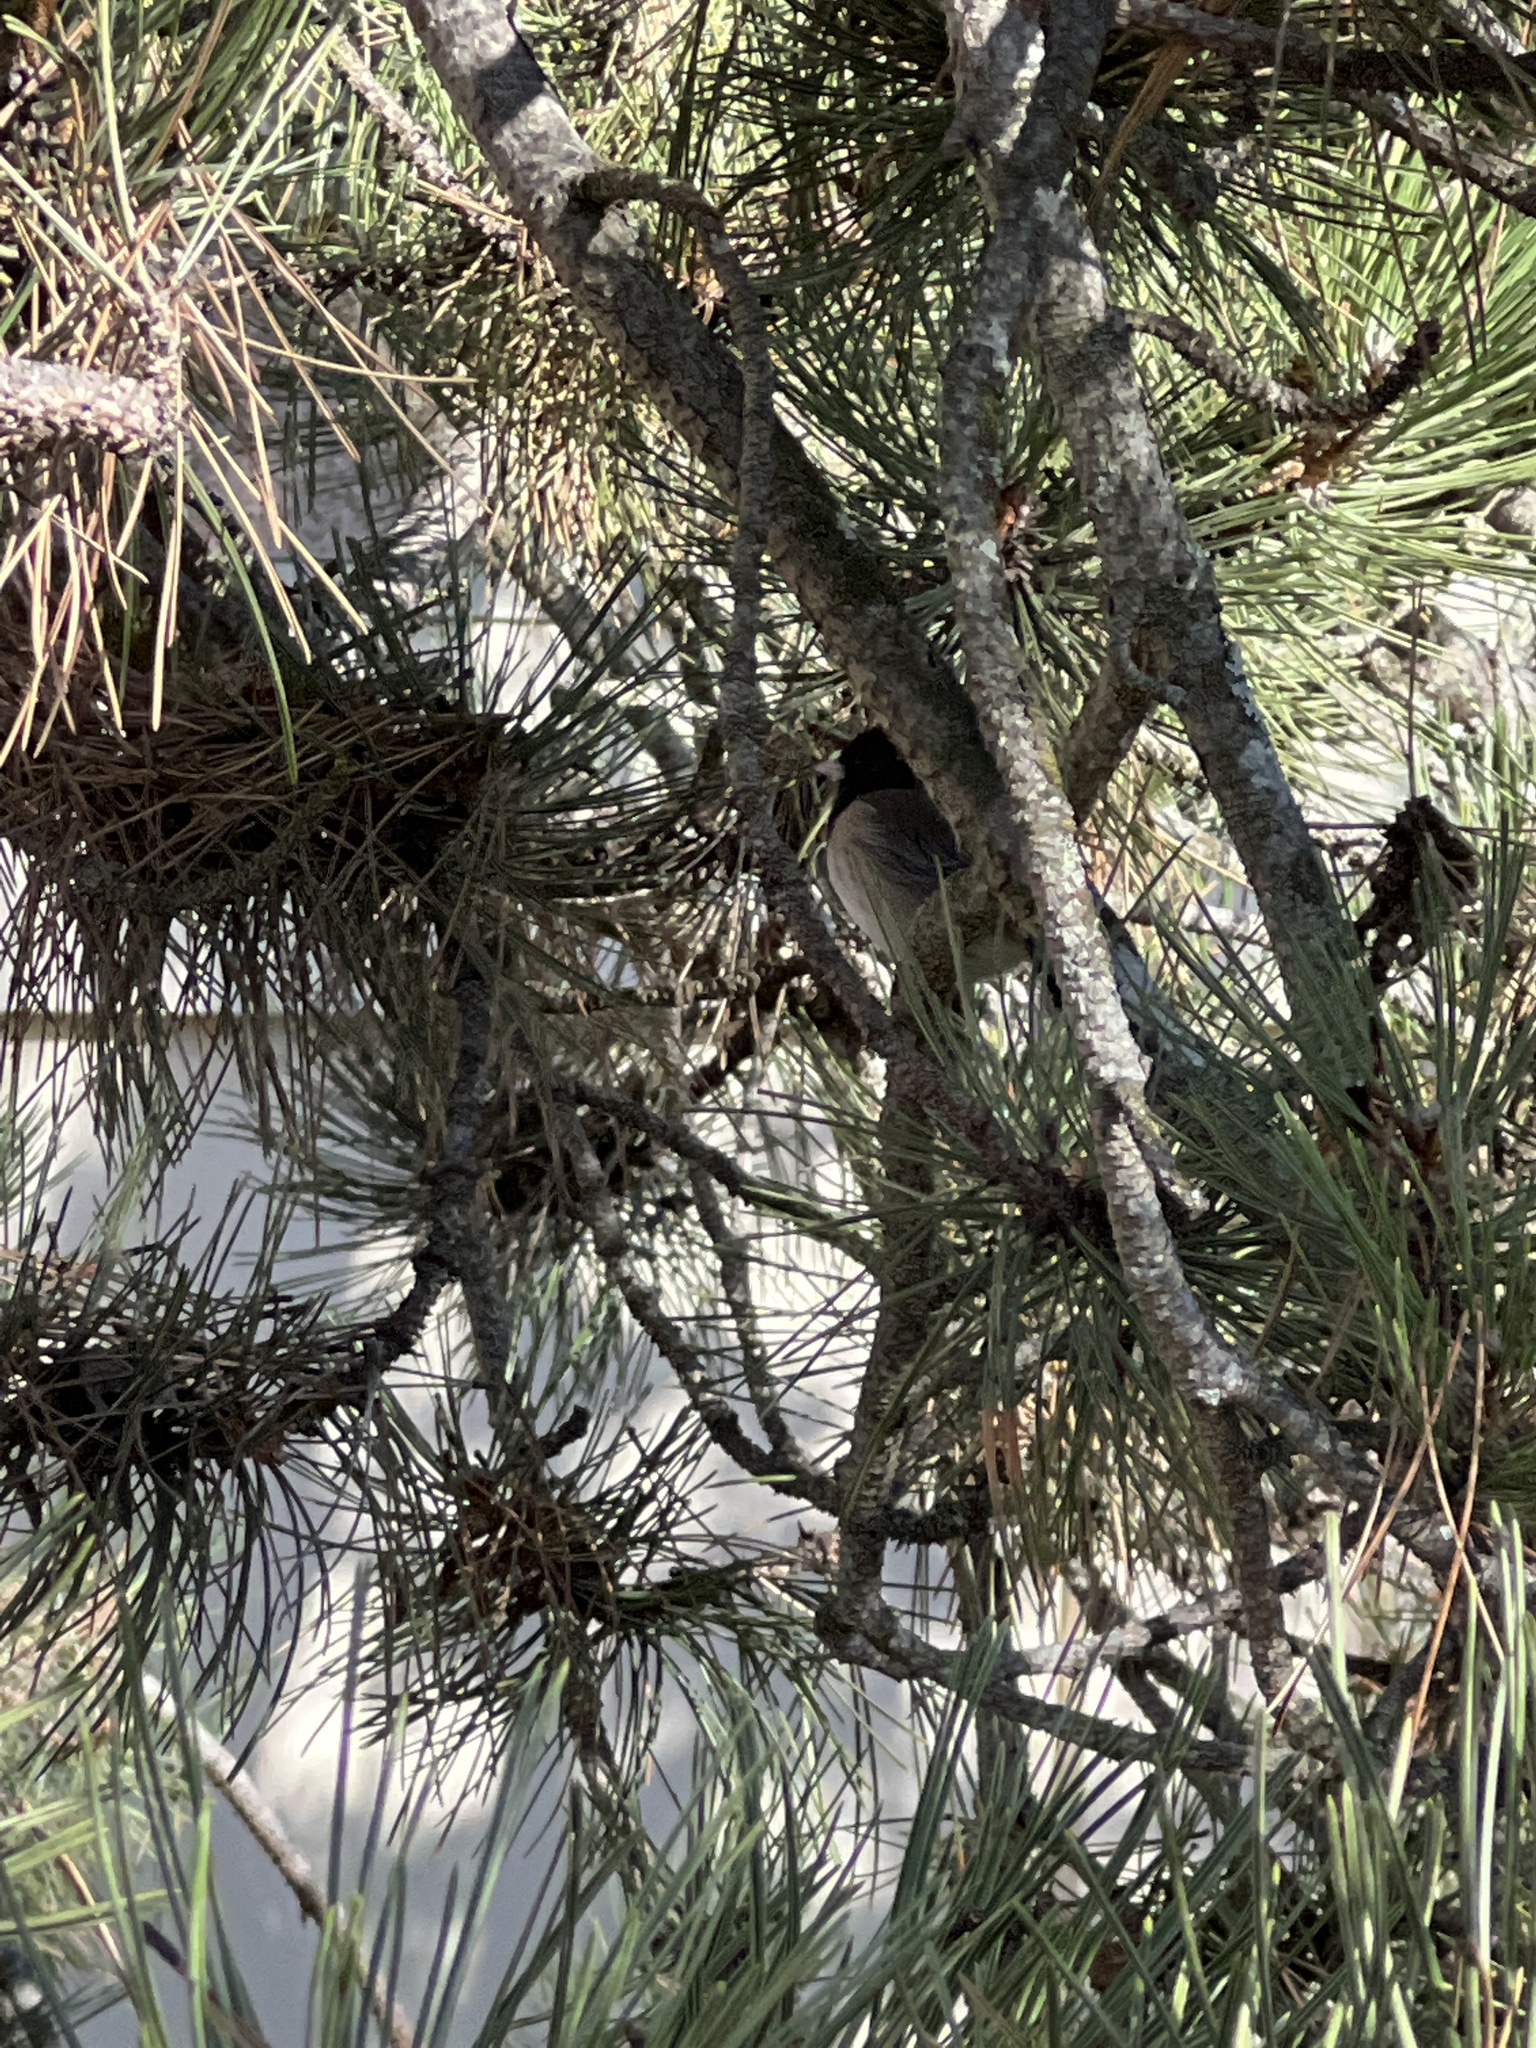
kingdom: Animalia
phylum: Chordata
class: Aves
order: Passeriformes
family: Passerellidae
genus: Junco
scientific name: Junco hyemalis
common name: Dark-eyed junco
